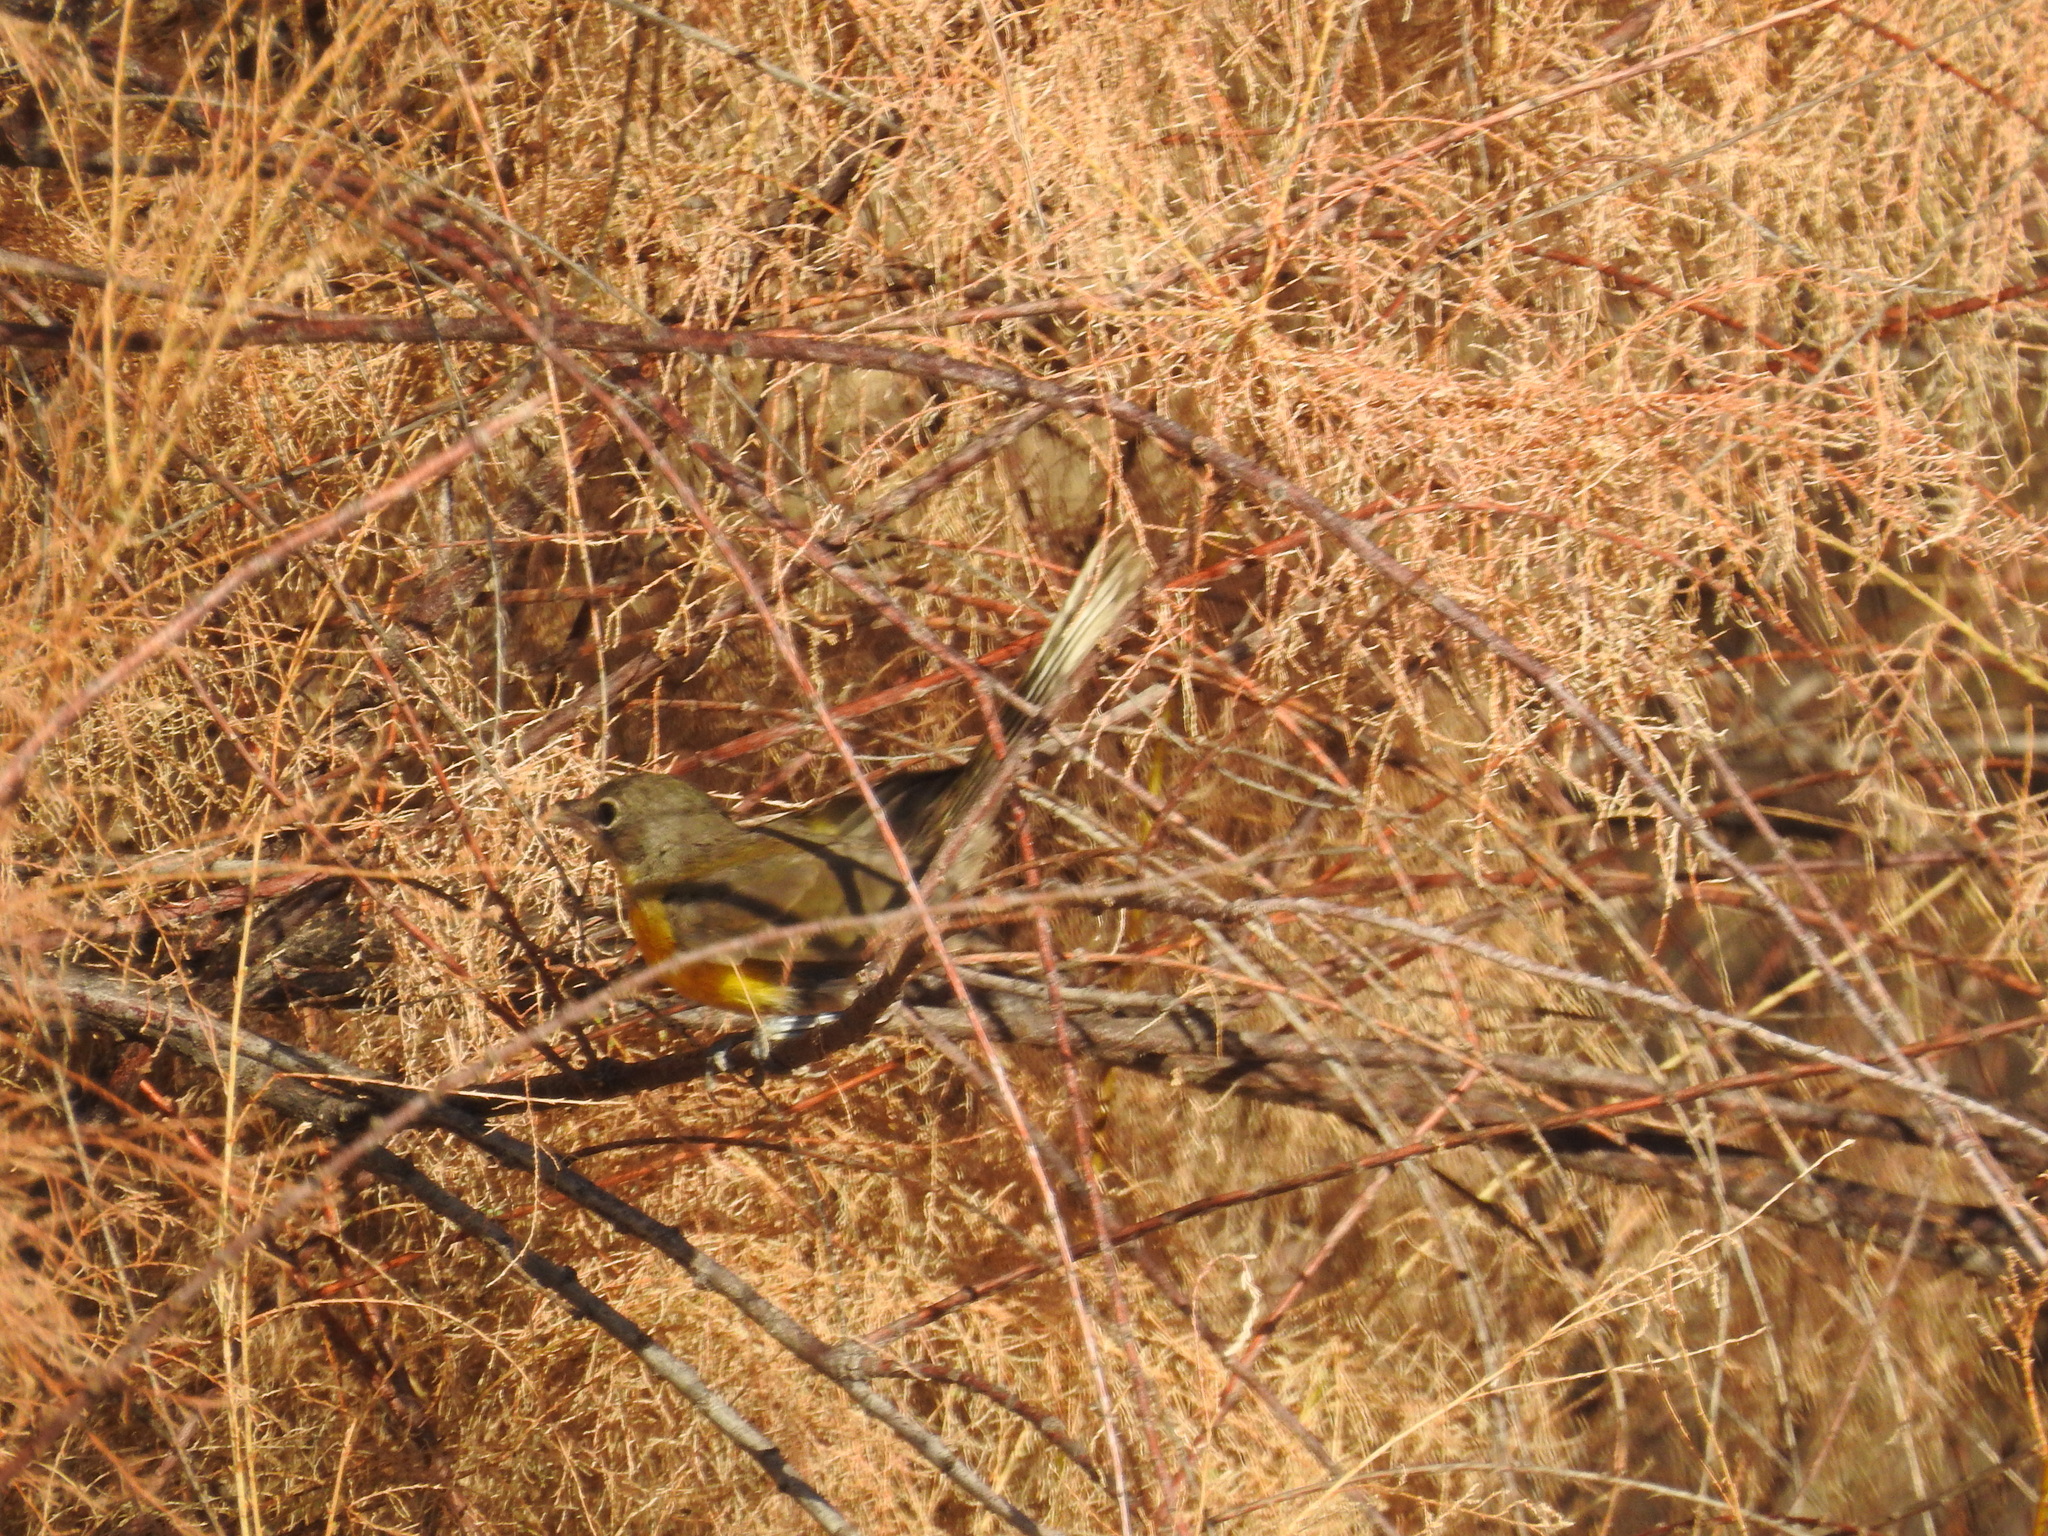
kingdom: Animalia
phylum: Chordata
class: Aves
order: Passeriformes
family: Parulidae
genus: Icteria
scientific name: Icteria virens
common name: Yellow-breasted chat
